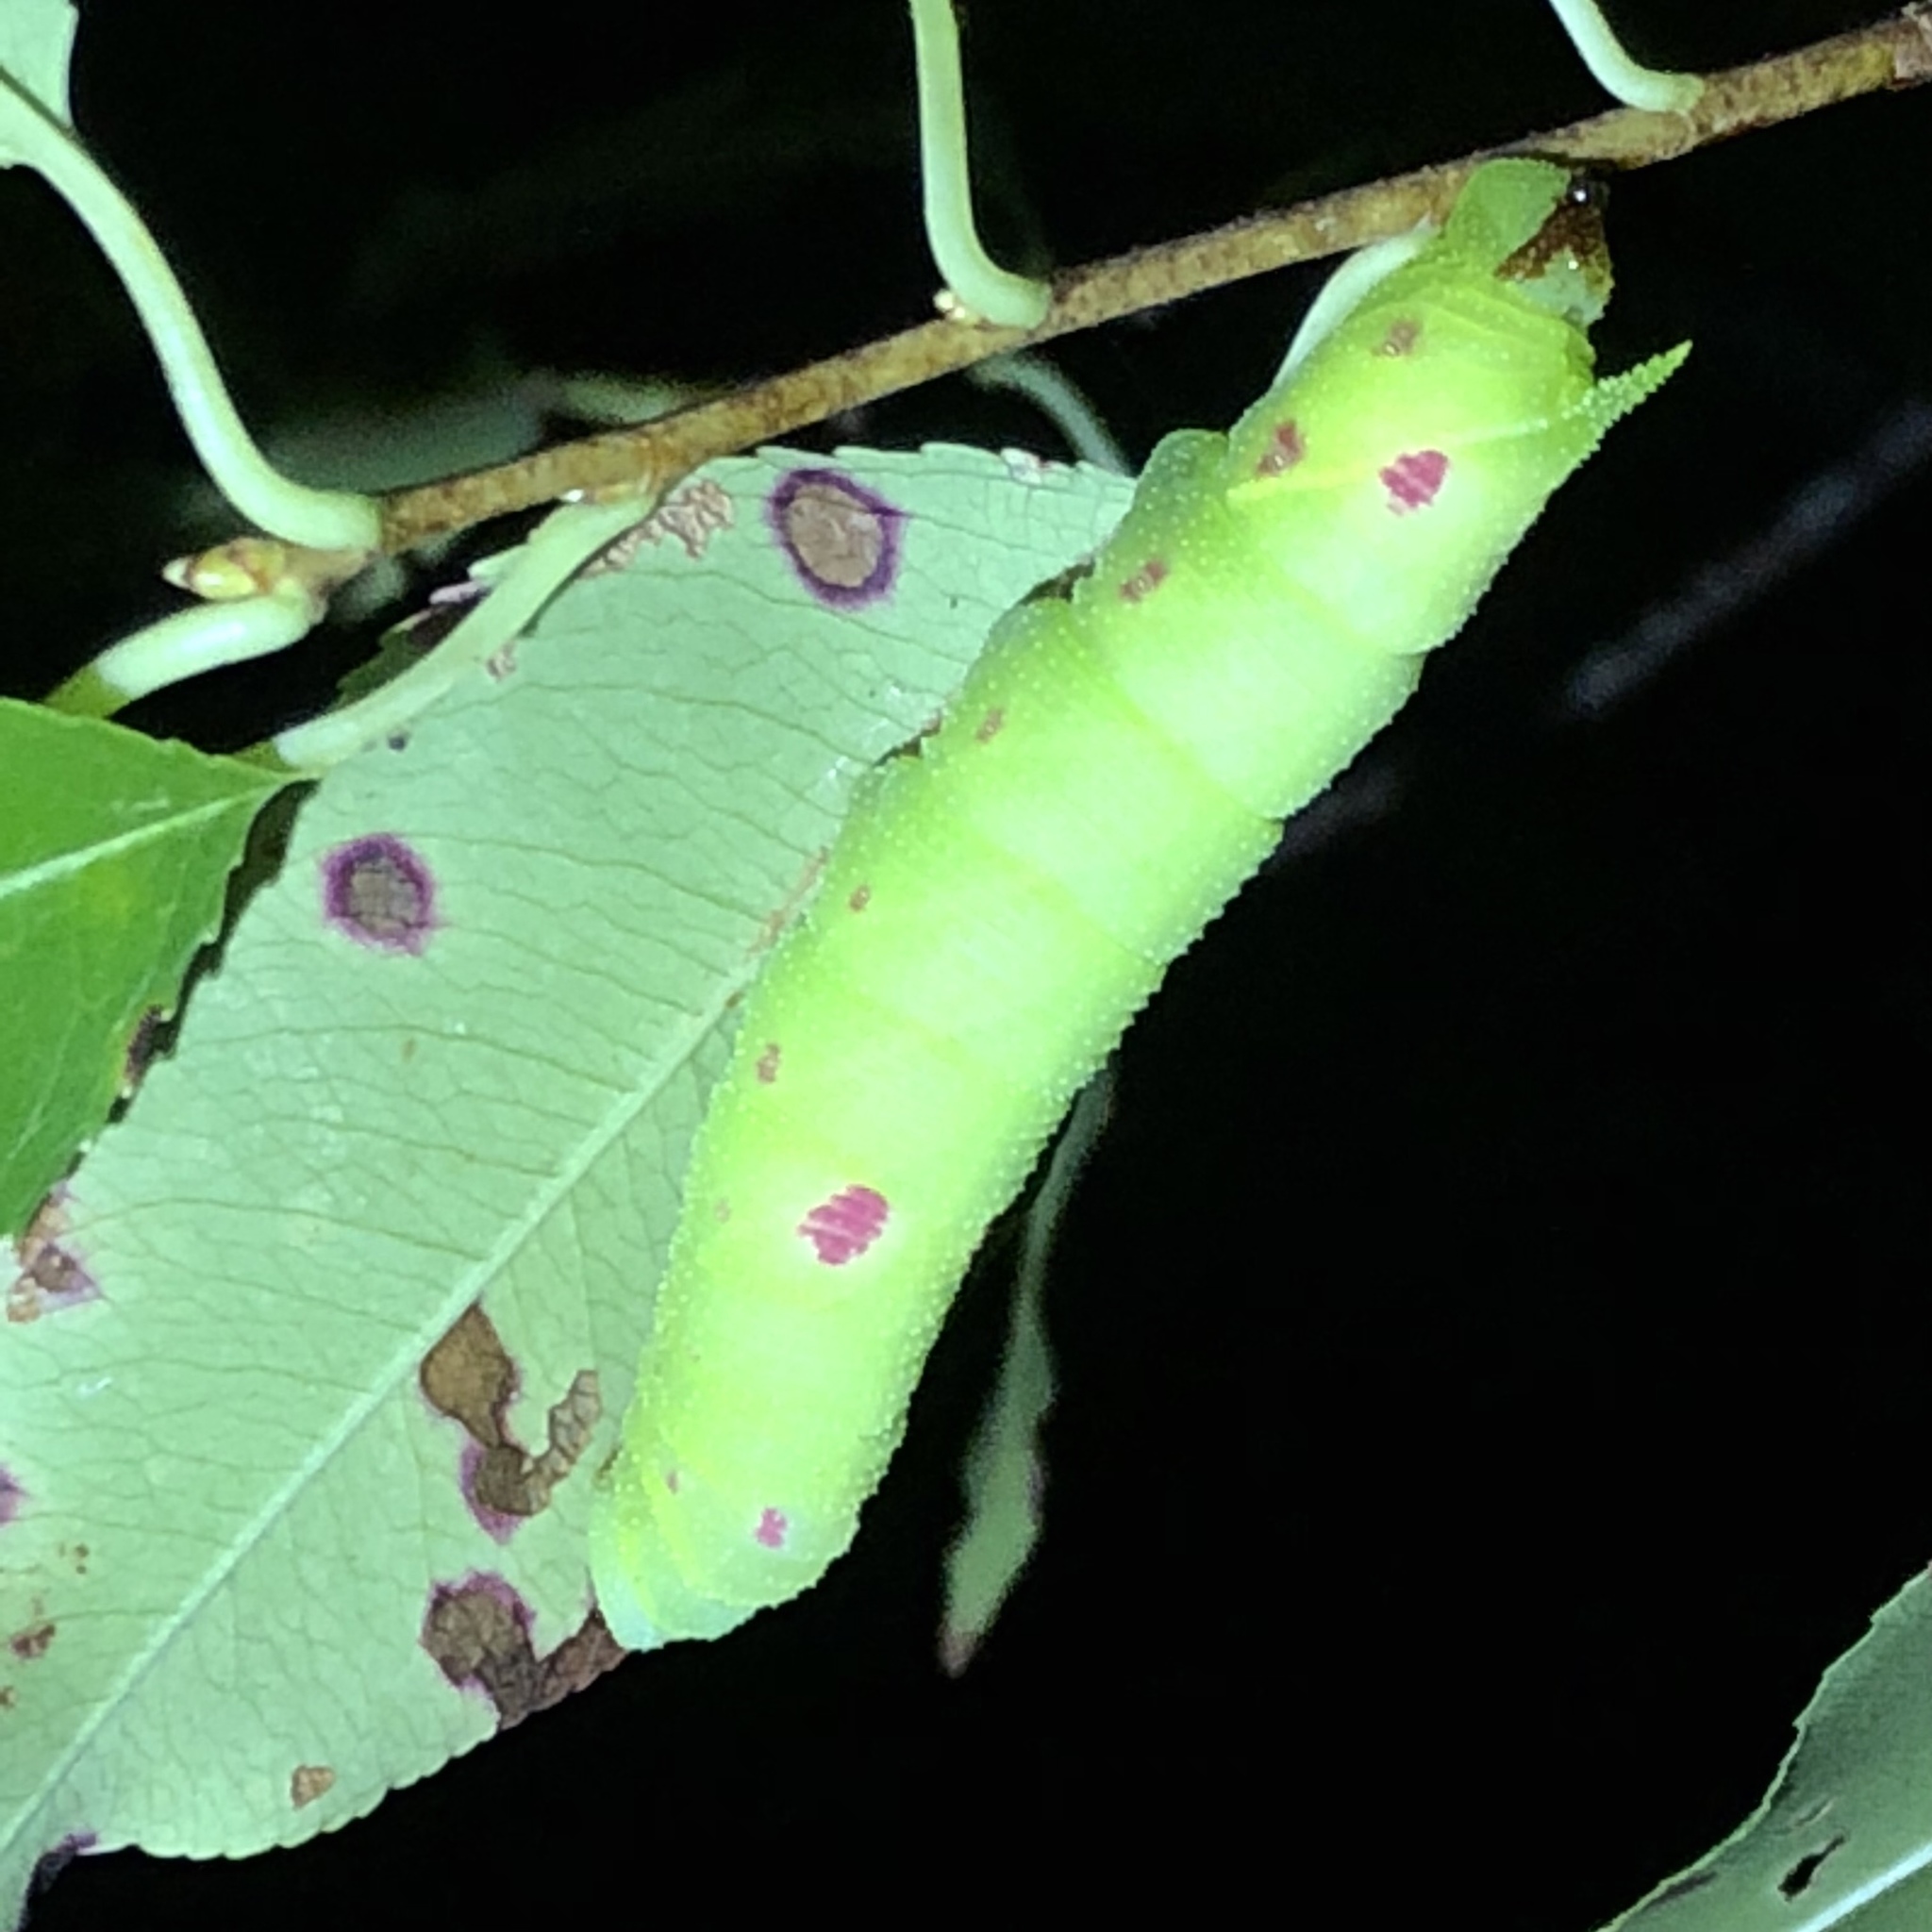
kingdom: Animalia
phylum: Arthropoda
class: Insecta
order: Lepidoptera
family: Sphingidae
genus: Paonias
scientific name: Paonias myops
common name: Small-eyed sphinx
